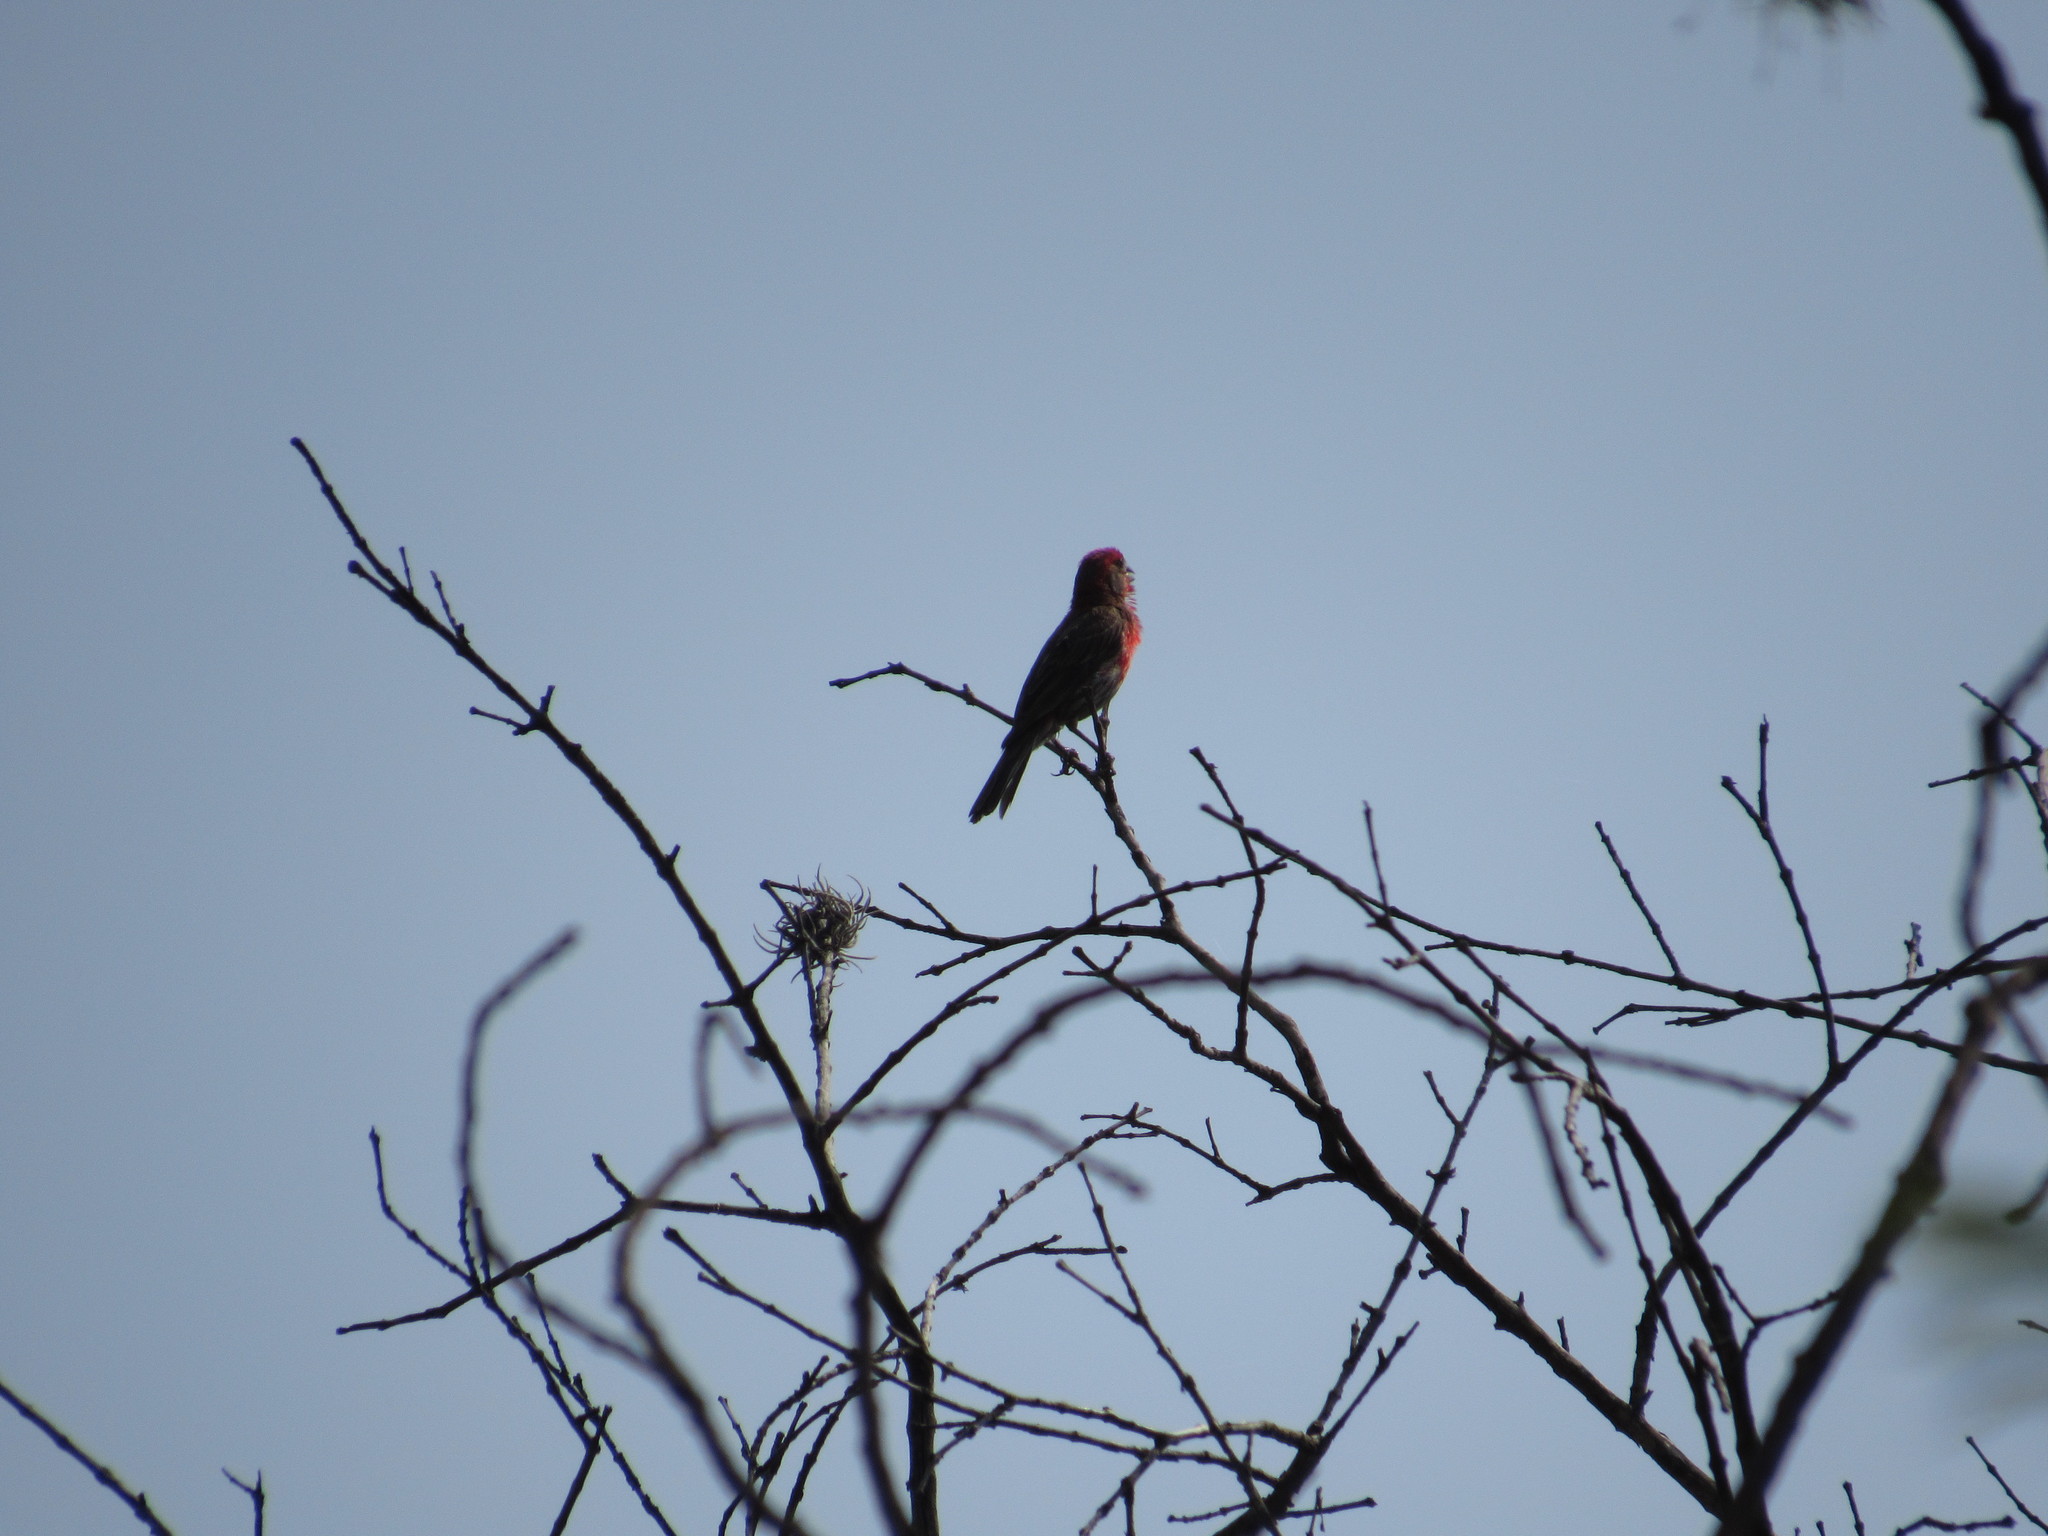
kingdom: Animalia
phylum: Chordata
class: Aves
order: Passeriformes
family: Fringillidae
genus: Haemorhous
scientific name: Haemorhous mexicanus
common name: House finch
